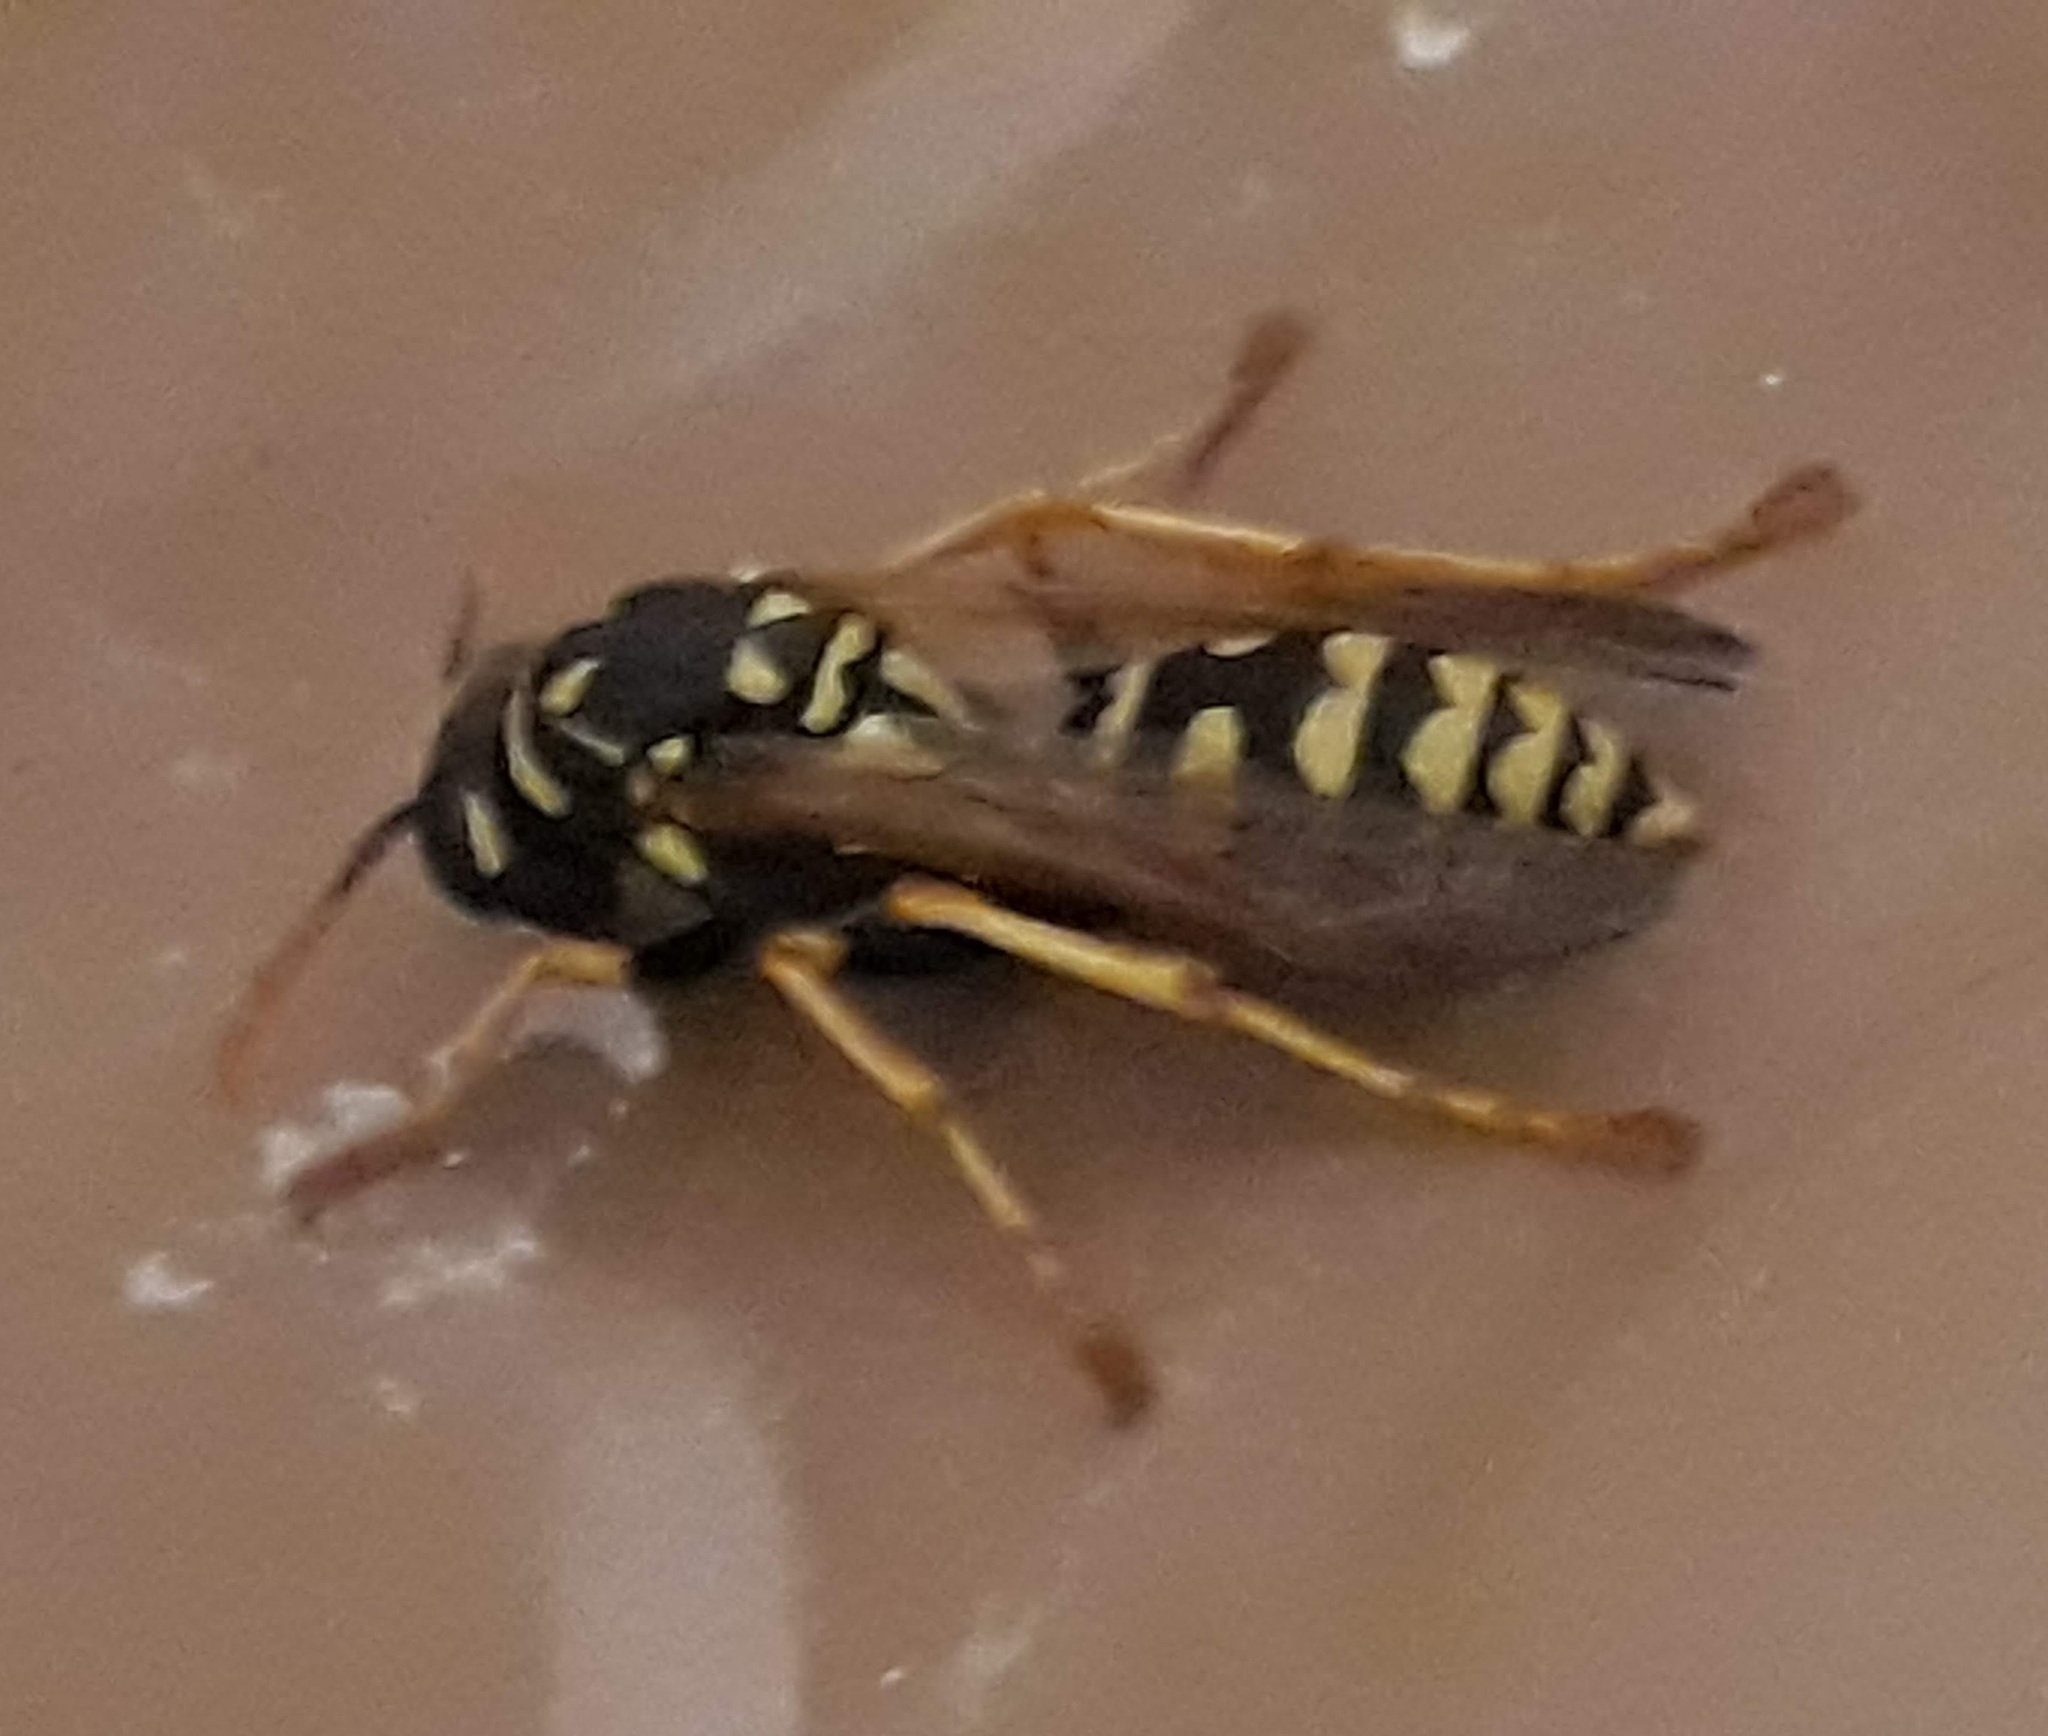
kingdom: Animalia
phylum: Arthropoda
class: Insecta
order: Hymenoptera
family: Eumenidae
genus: Polistes
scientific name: Polistes dominula
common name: Paper wasp
